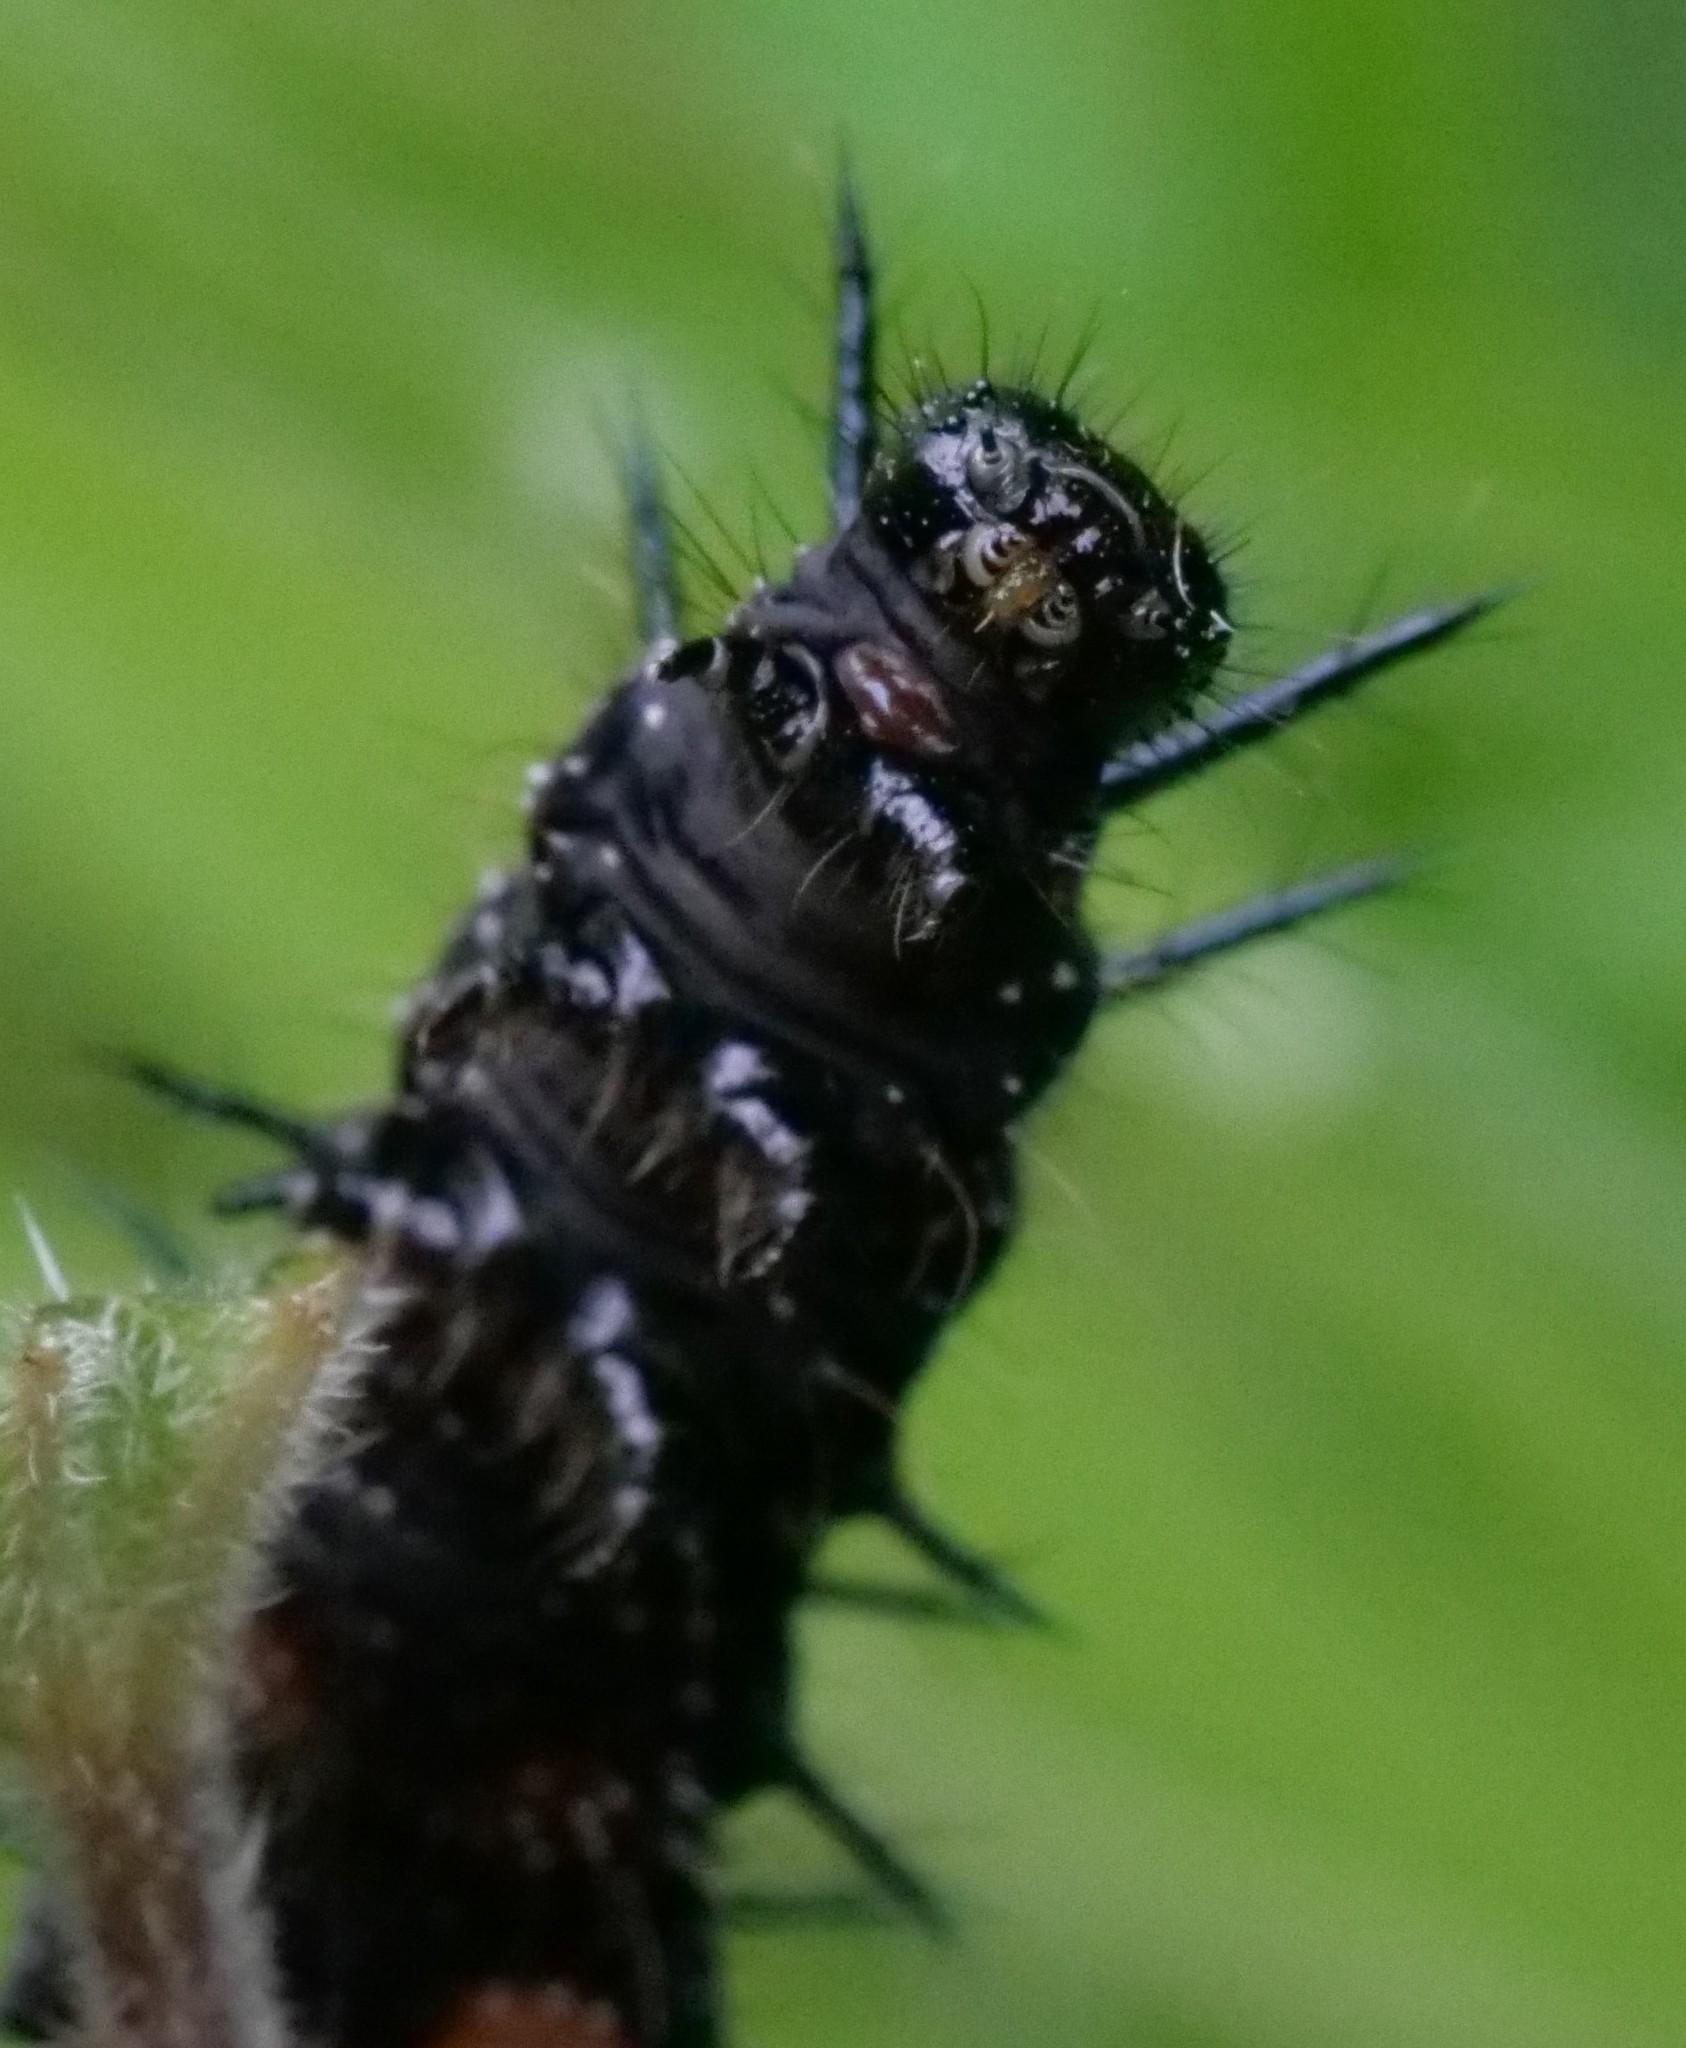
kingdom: Animalia
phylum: Arthropoda
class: Insecta
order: Lepidoptera
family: Nymphalidae
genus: Aglais
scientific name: Aglais io
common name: Peacock
